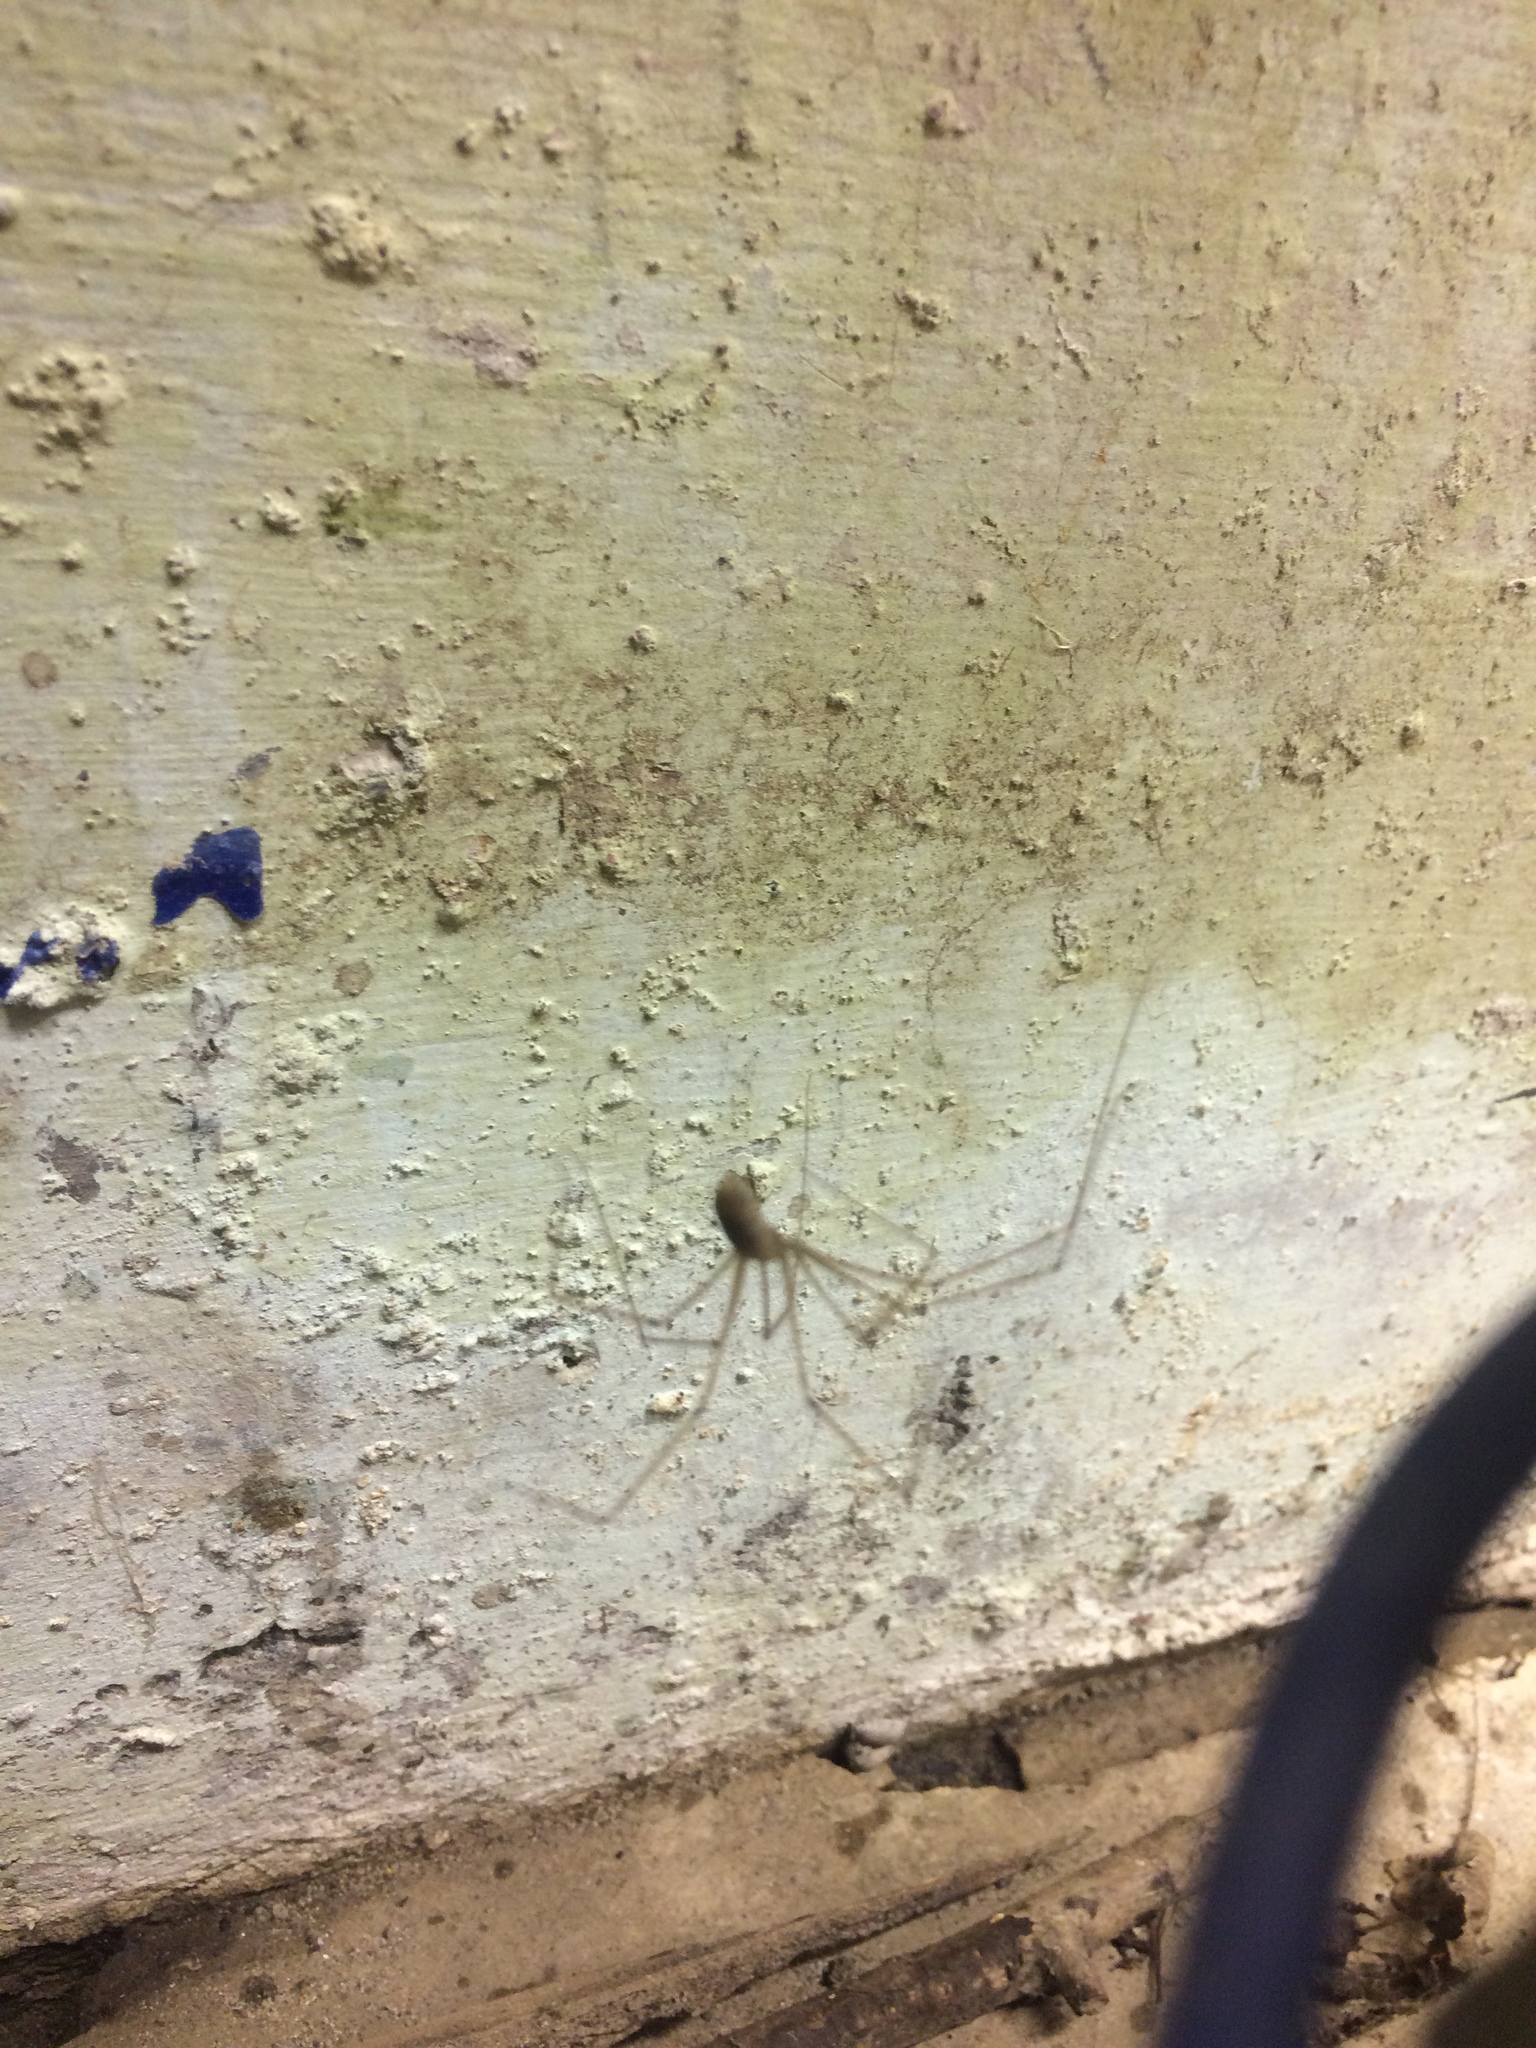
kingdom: Animalia
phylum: Arthropoda
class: Arachnida
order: Araneae
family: Pholcidae
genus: Pholcus
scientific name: Pholcus phalangioides
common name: Longbodied cellar spider
